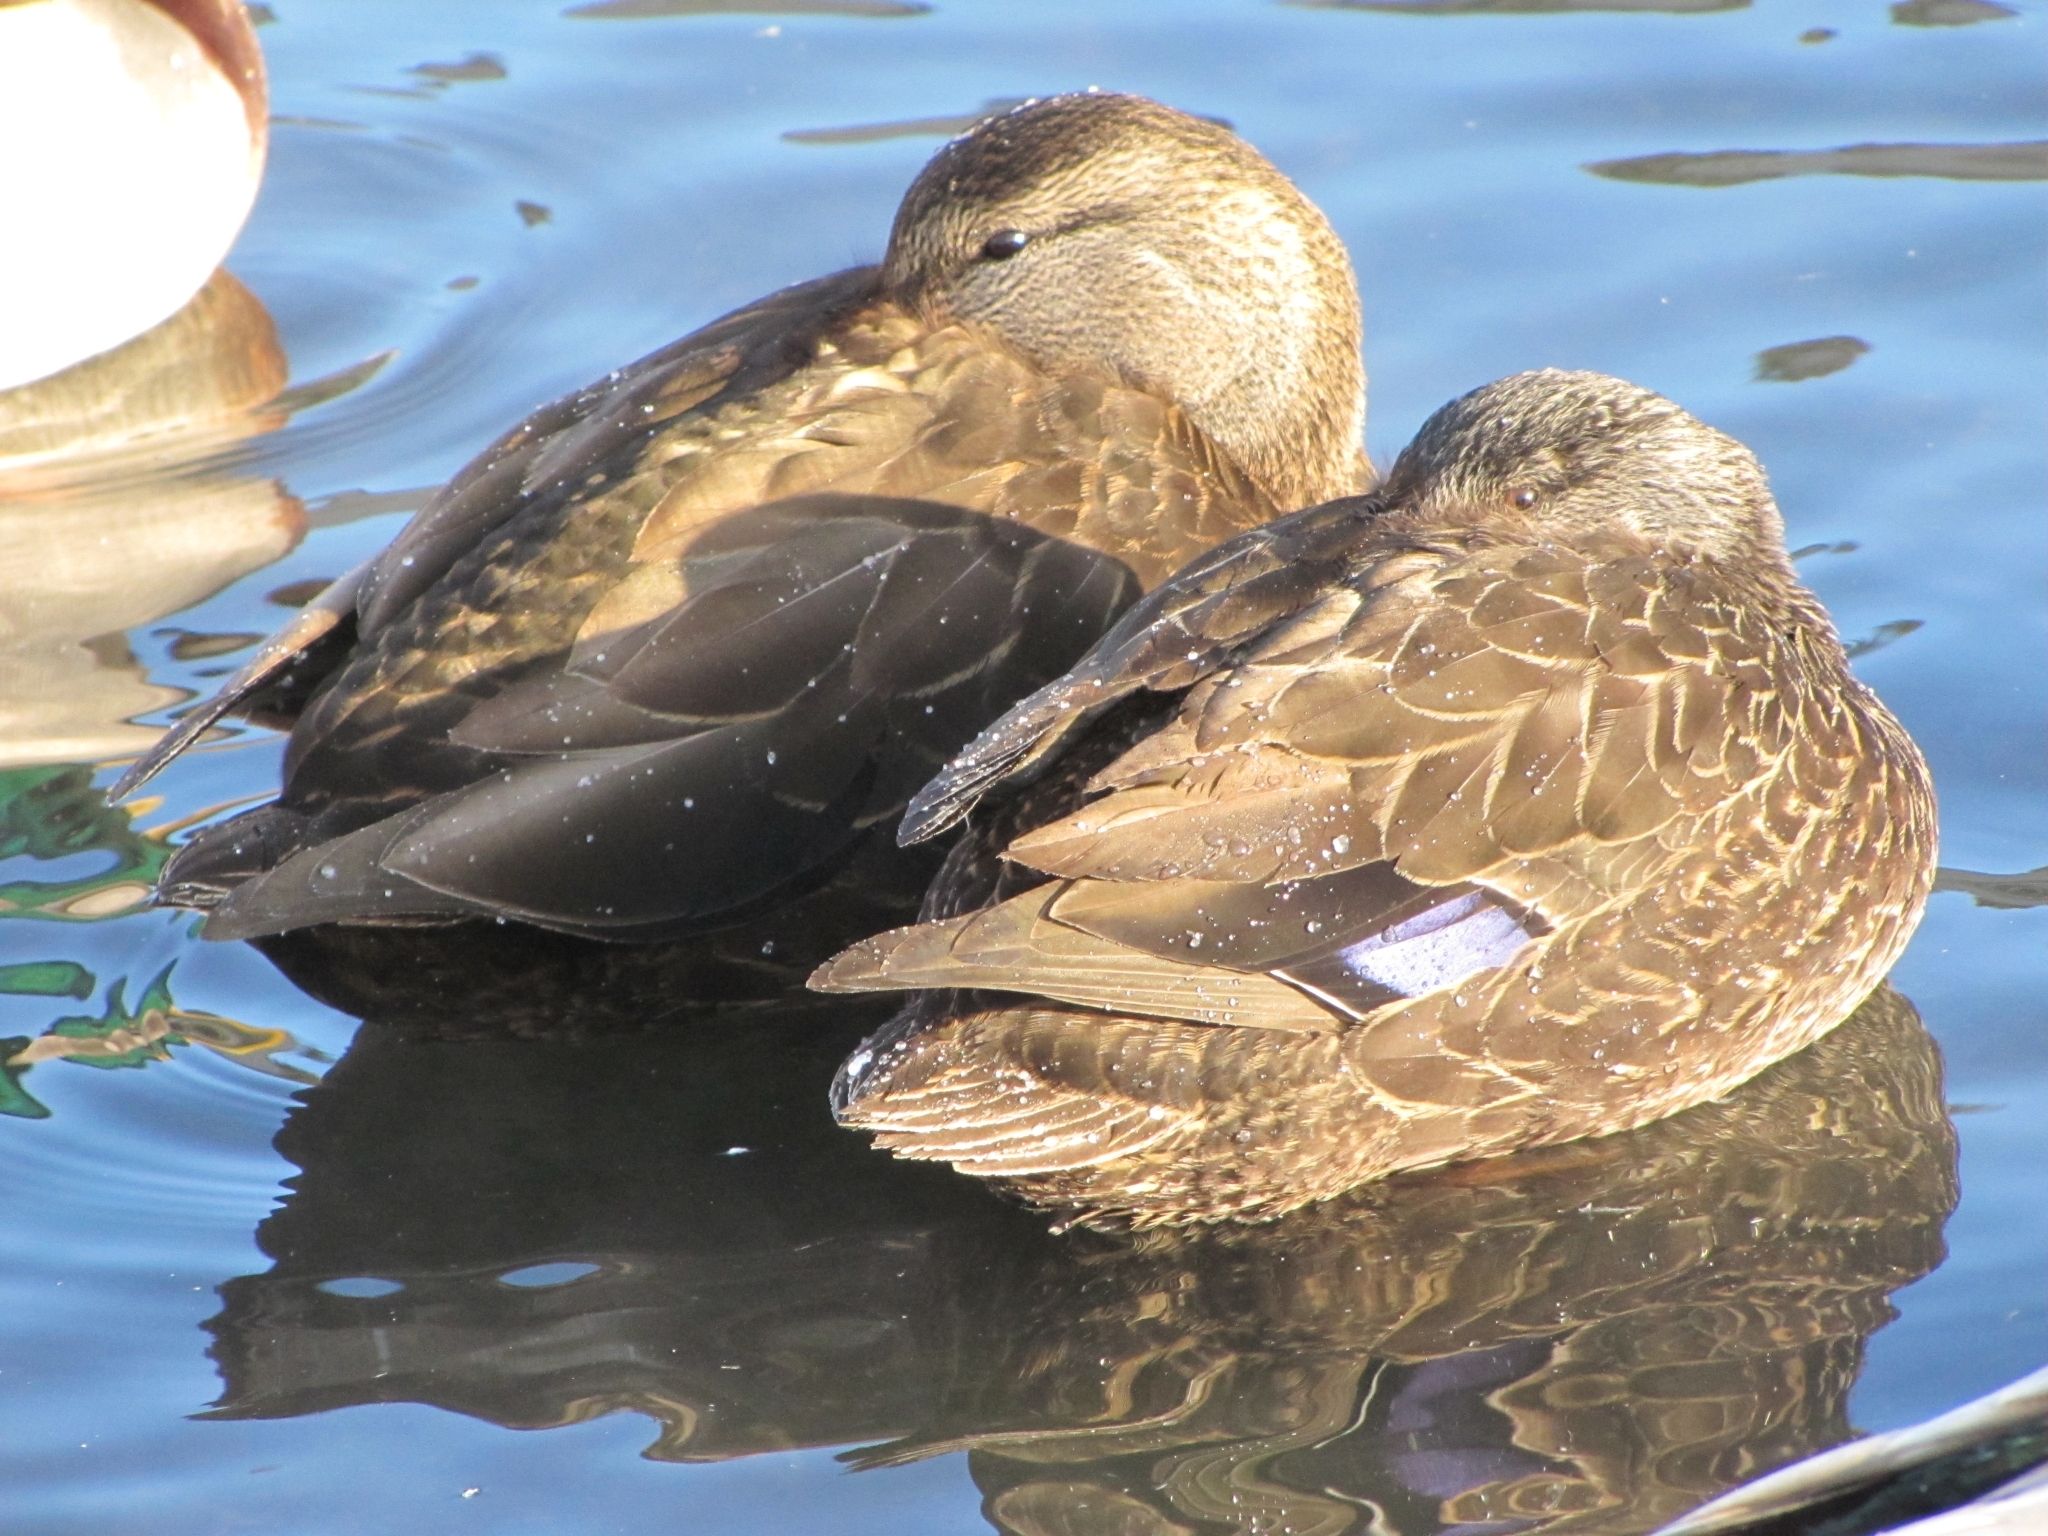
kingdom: Animalia
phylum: Chordata
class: Aves
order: Anseriformes
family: Anatidae
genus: Anas
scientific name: Anas rubripes
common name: American black duck
